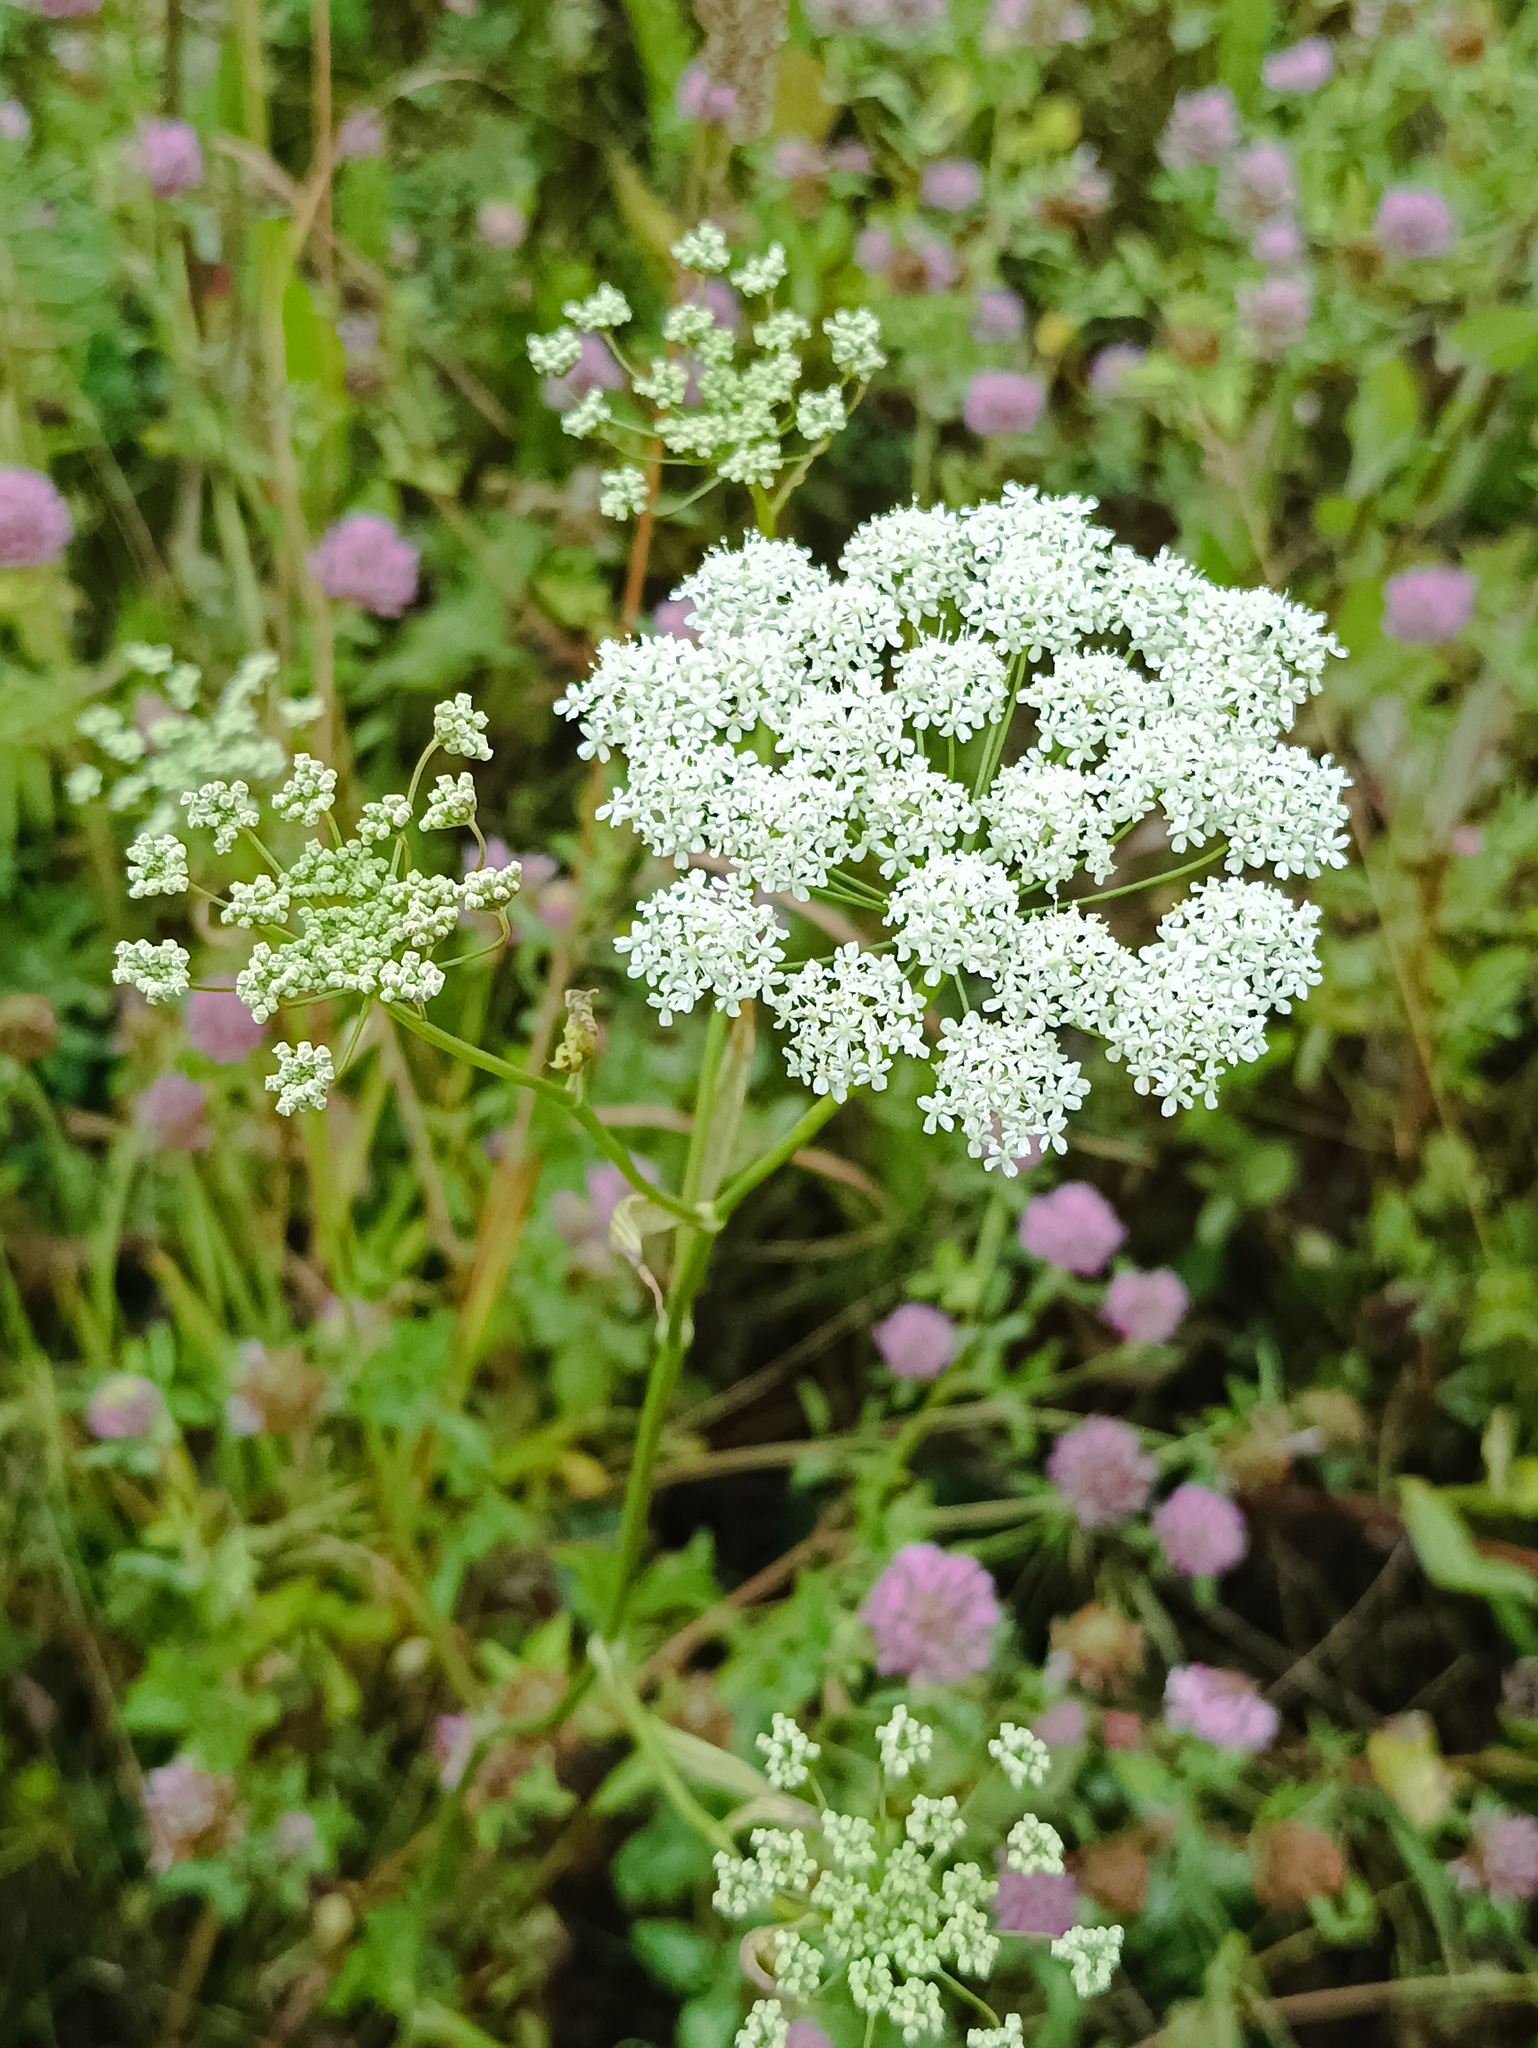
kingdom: Plantae
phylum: Tracheophyta
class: Magnoliopsida
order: Apiales
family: Apiaceae
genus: Pimpinella
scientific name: Pimpinella saxifraga
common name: Burnet-saxifrage
